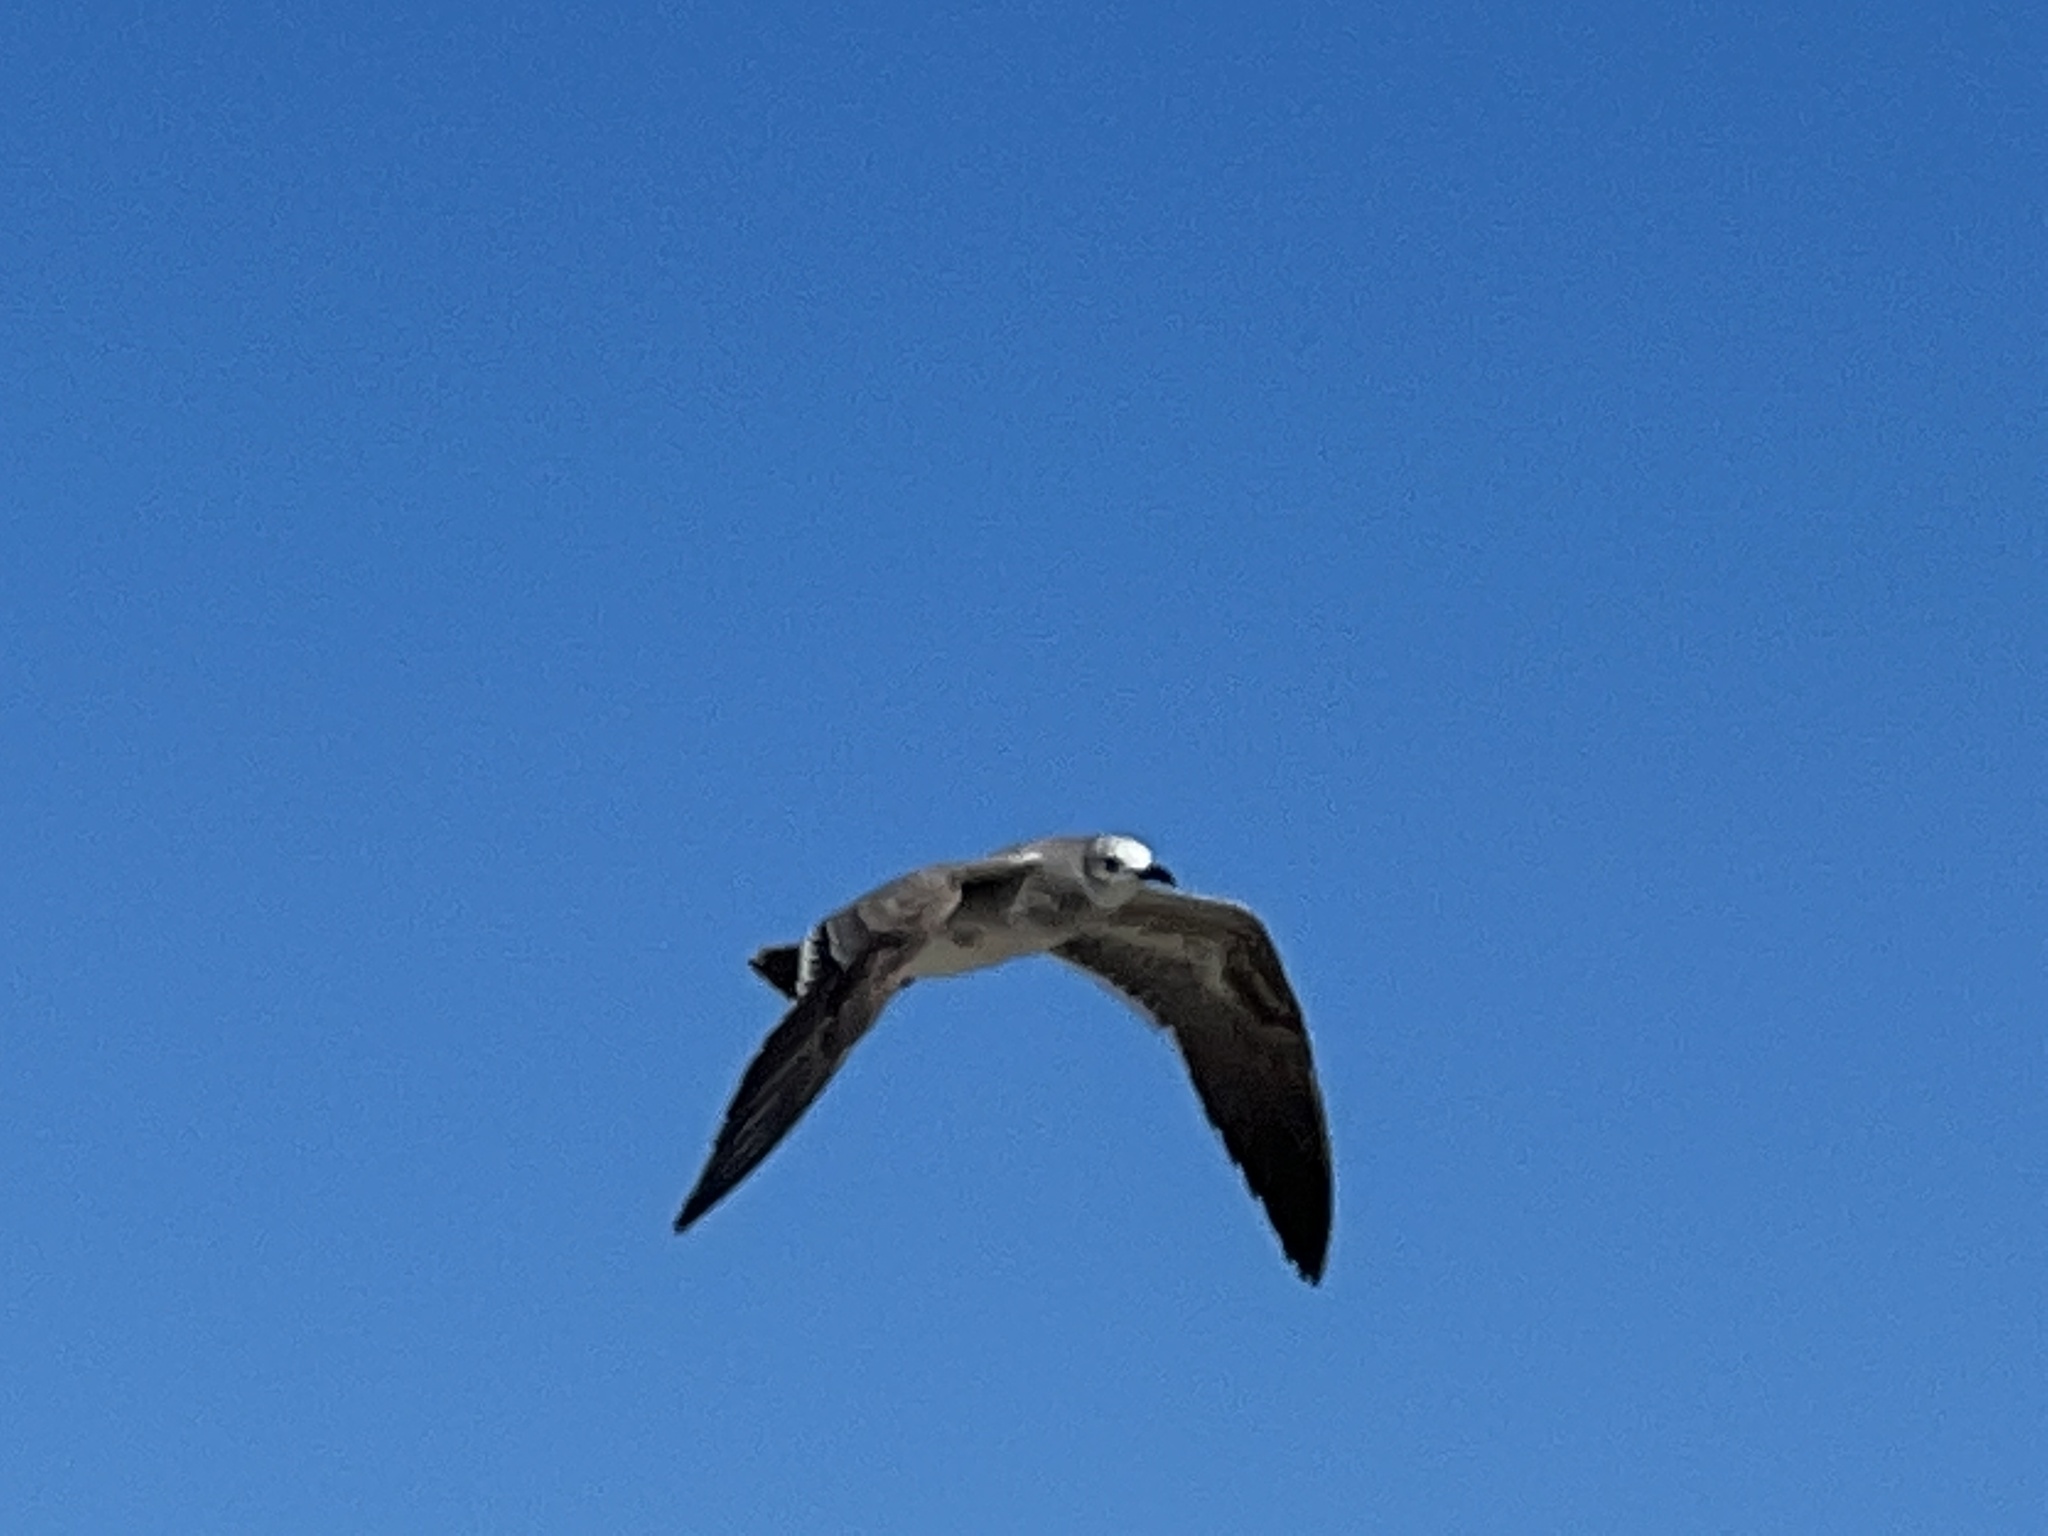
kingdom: Animalia
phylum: Chordata
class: Aves
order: Charadriiformes
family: Laridae
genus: Leucophaeus
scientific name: Leucophaeus atricilla
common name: Laughing gull
